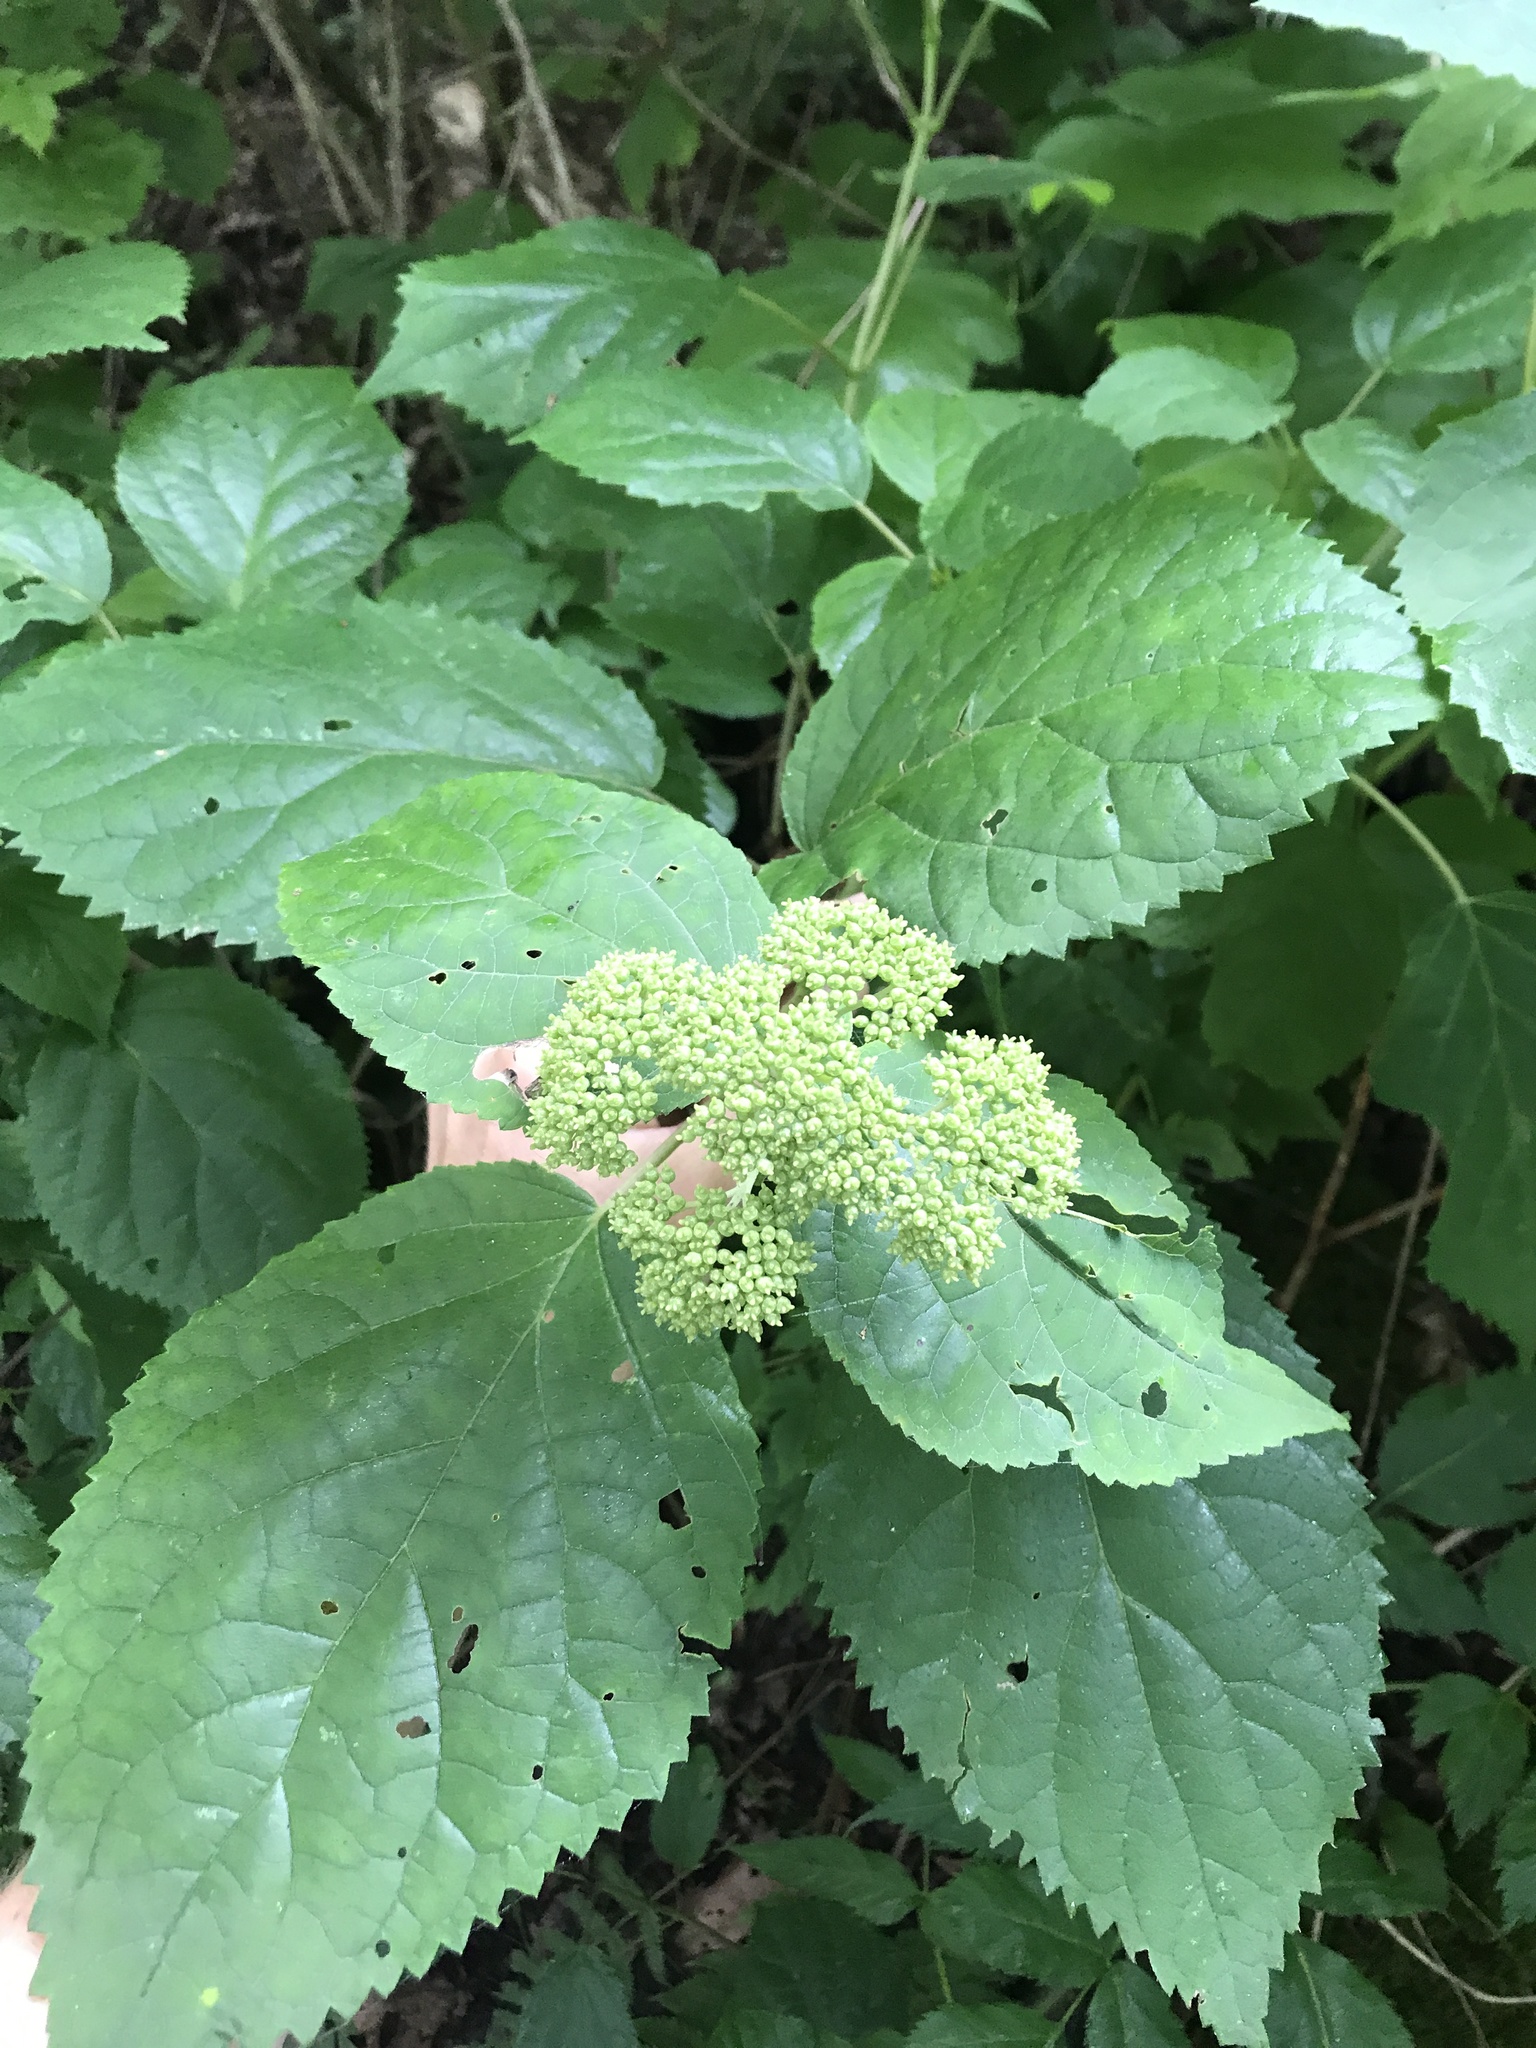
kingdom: Plantae
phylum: Tracheophyta
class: Magnoliopsida
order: Cornales
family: Hydrangeaceae
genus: Hydrangea
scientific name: Hydrangea arborescens
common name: Sevenbark
